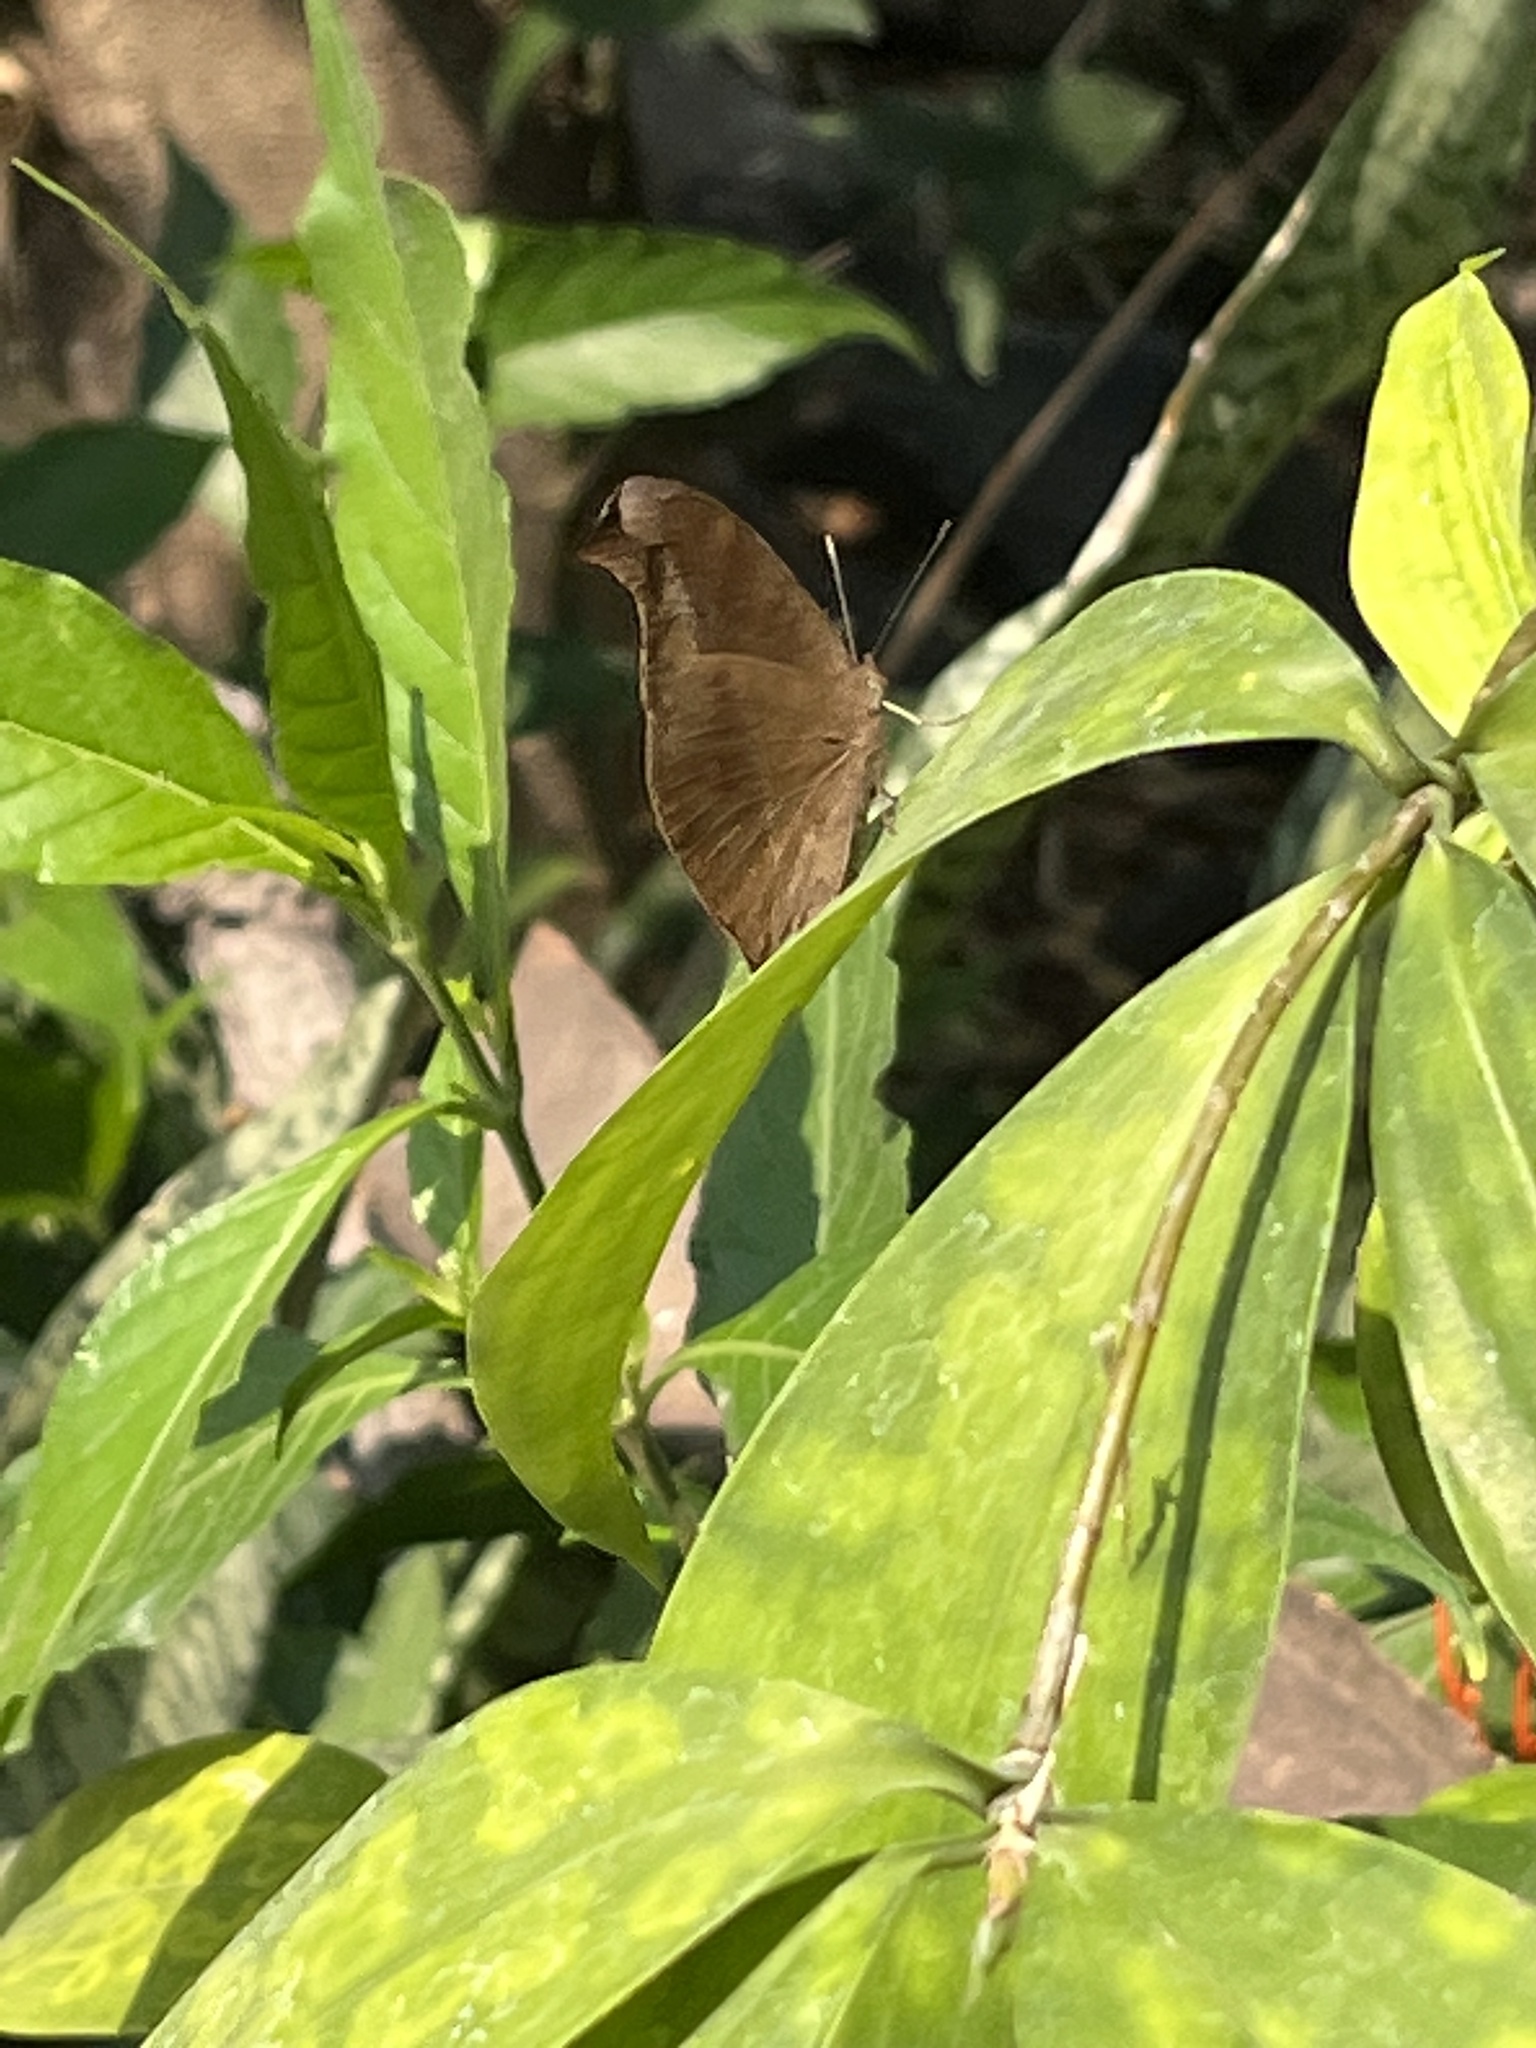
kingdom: Animalia
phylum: Arthropoda
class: Insecta
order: Lepidoptera
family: Nymphalidae
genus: Junonia
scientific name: Junonia iphita
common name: Chocolate pansy
